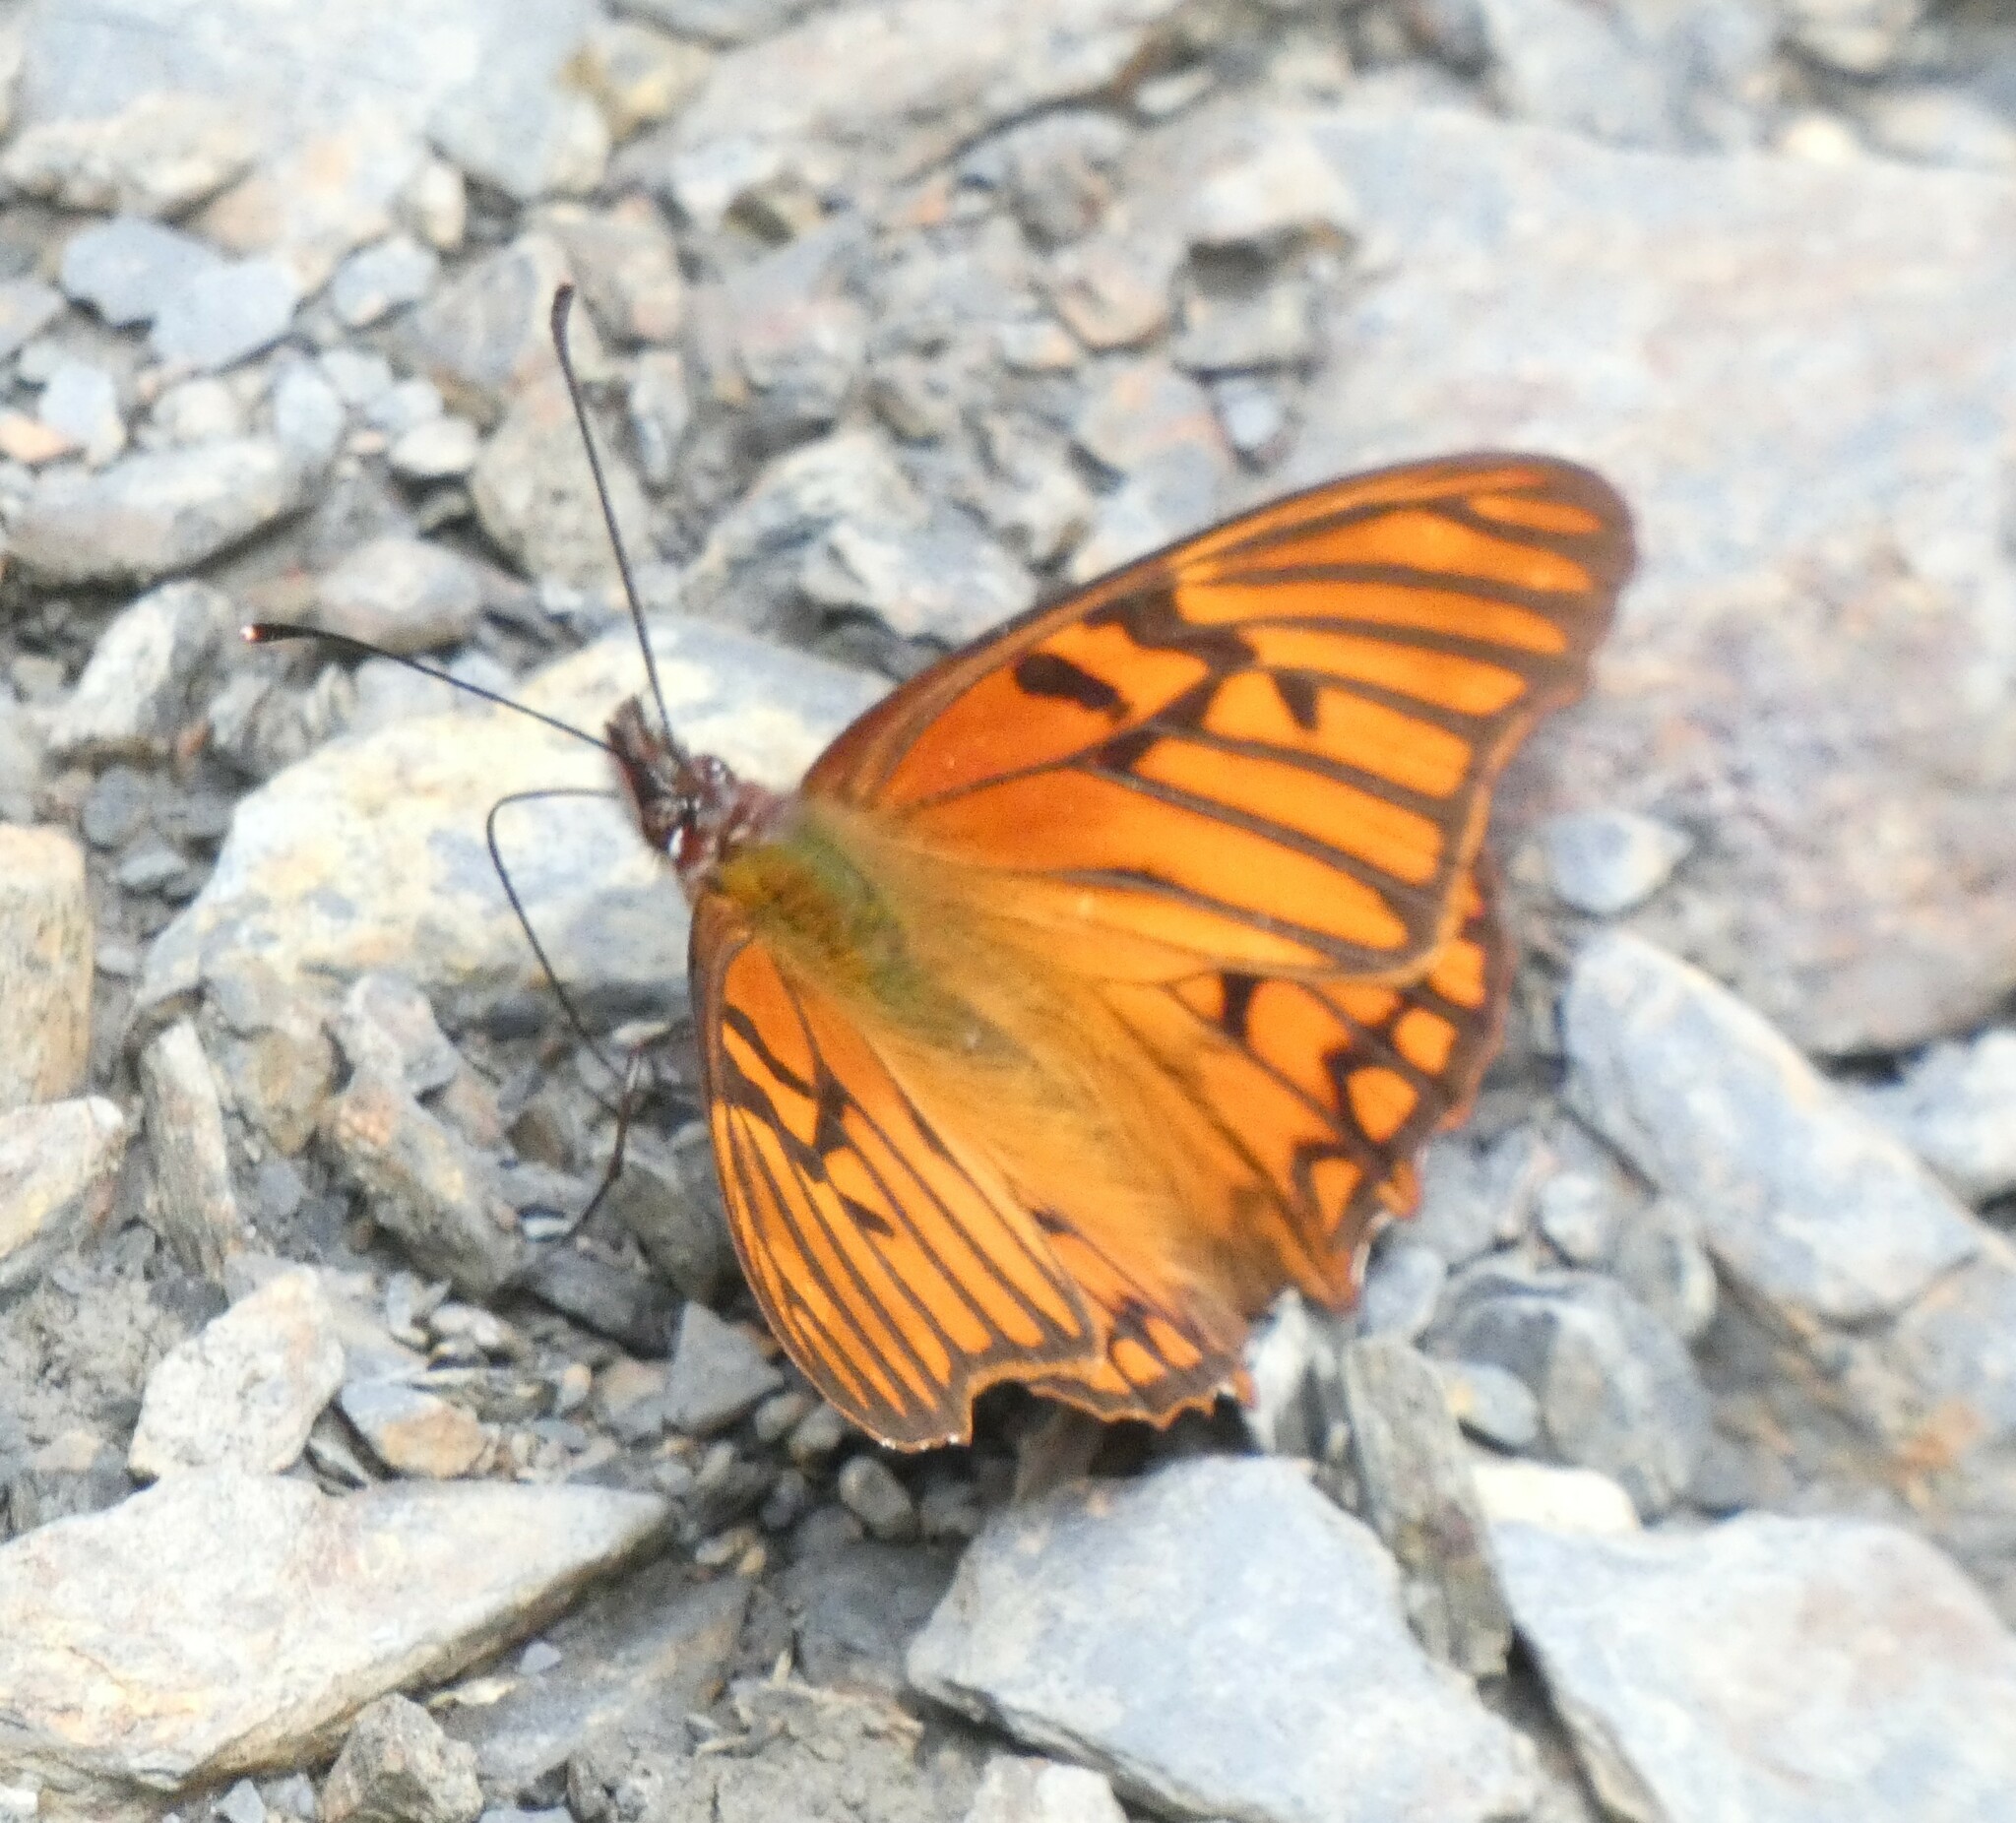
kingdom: Animalia
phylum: Arthropoda
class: Insecta
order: Lepidoptera
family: Nymphalidae
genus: Dione
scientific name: Dione glycera
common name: Andean silverspot
